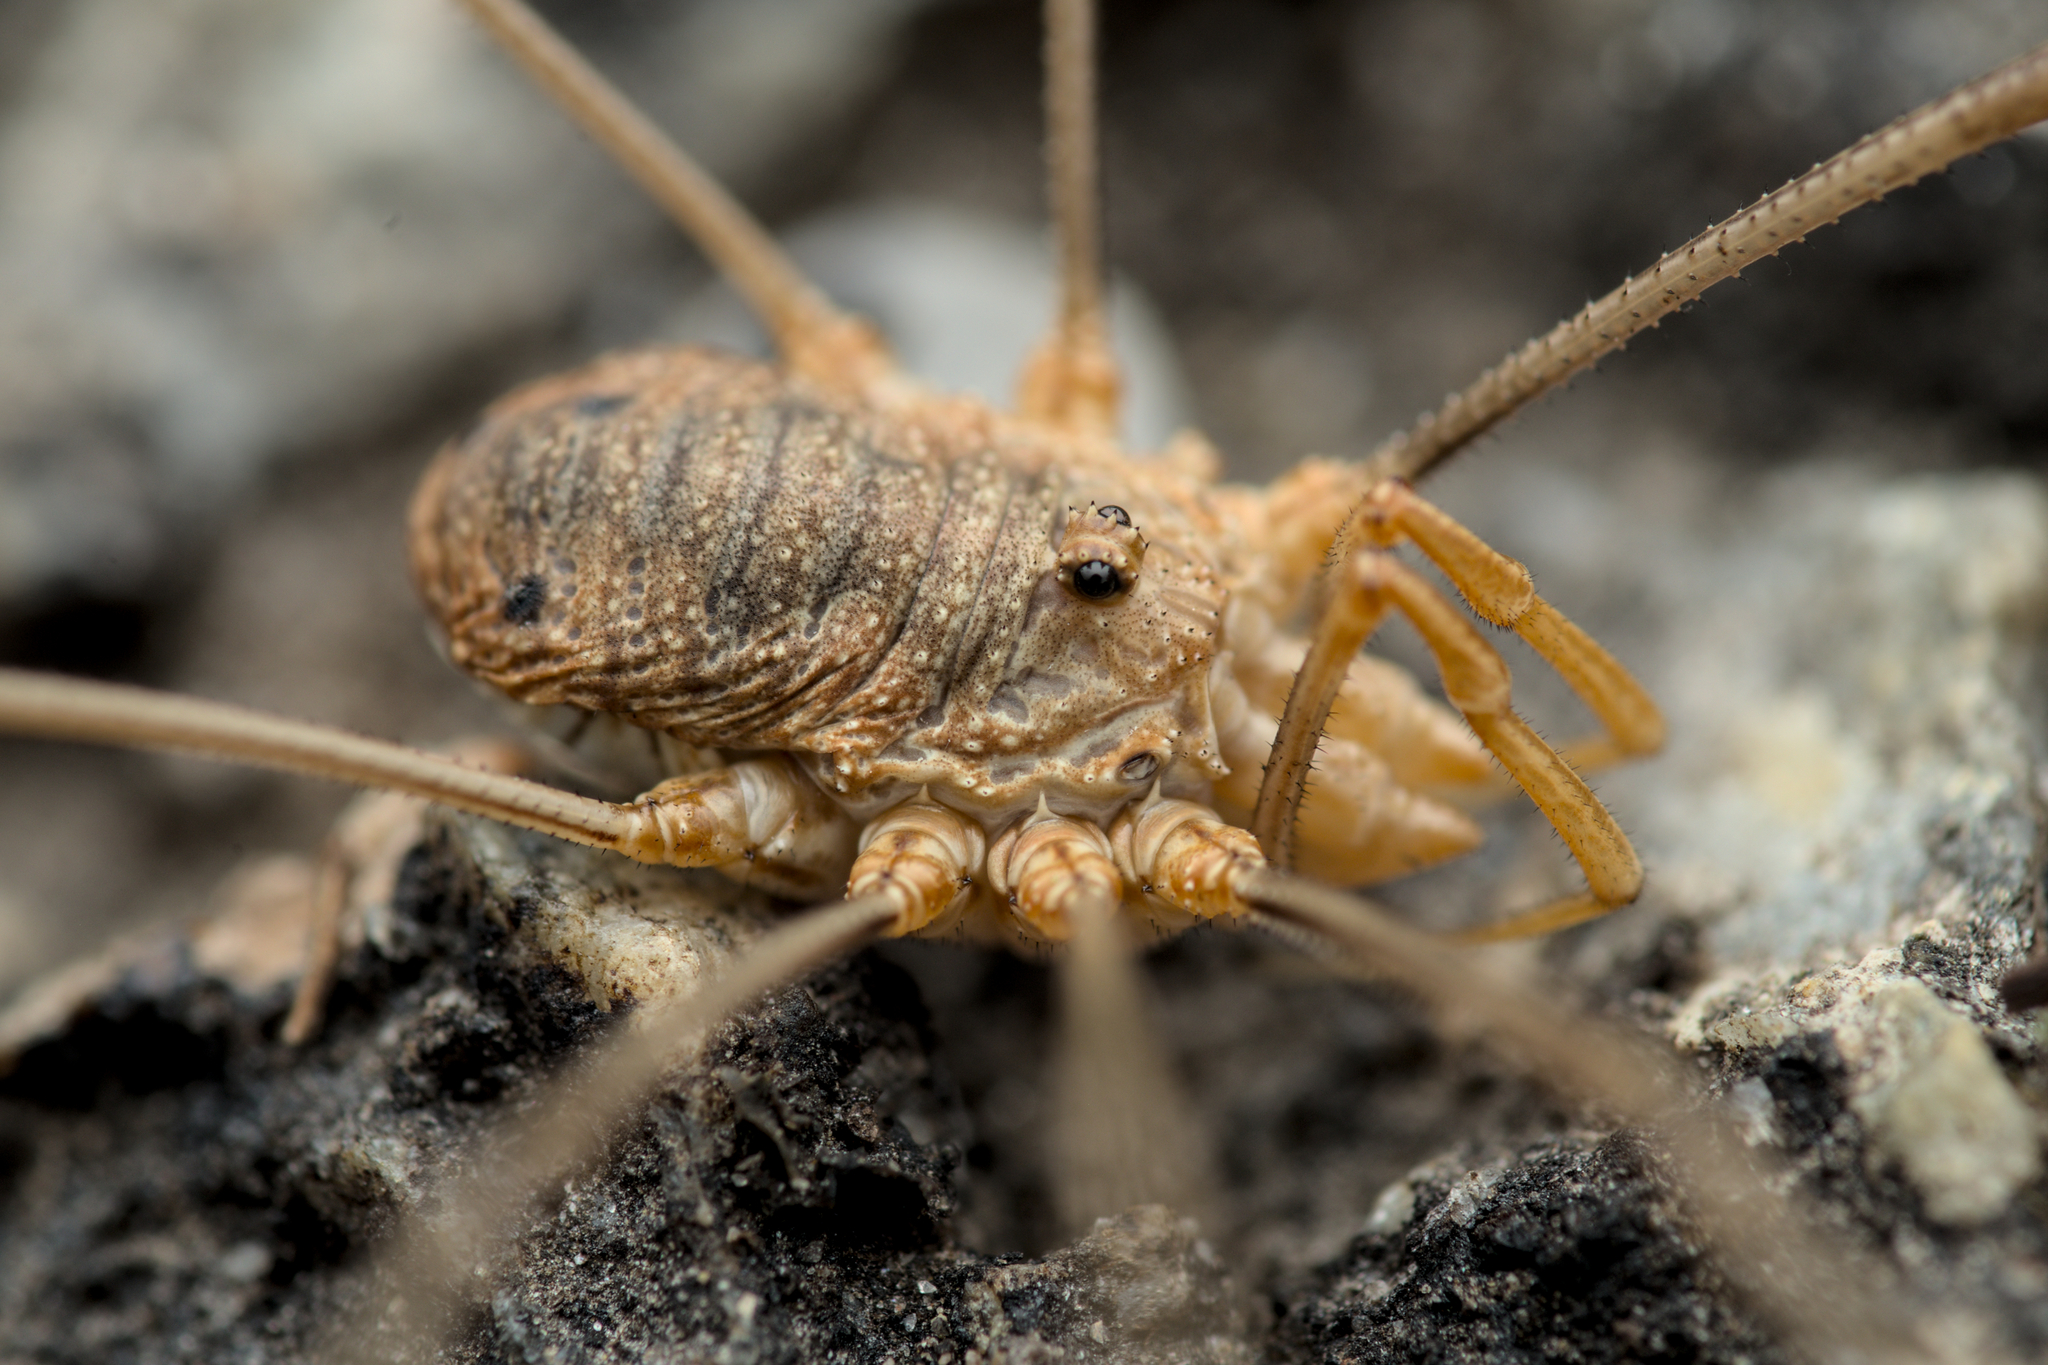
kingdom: Animalia
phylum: Arthropoda
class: Arachnida
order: Opiliones
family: Phalangiidae
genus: Phalangium
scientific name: Phalangium opilio
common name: Daddy longleg
